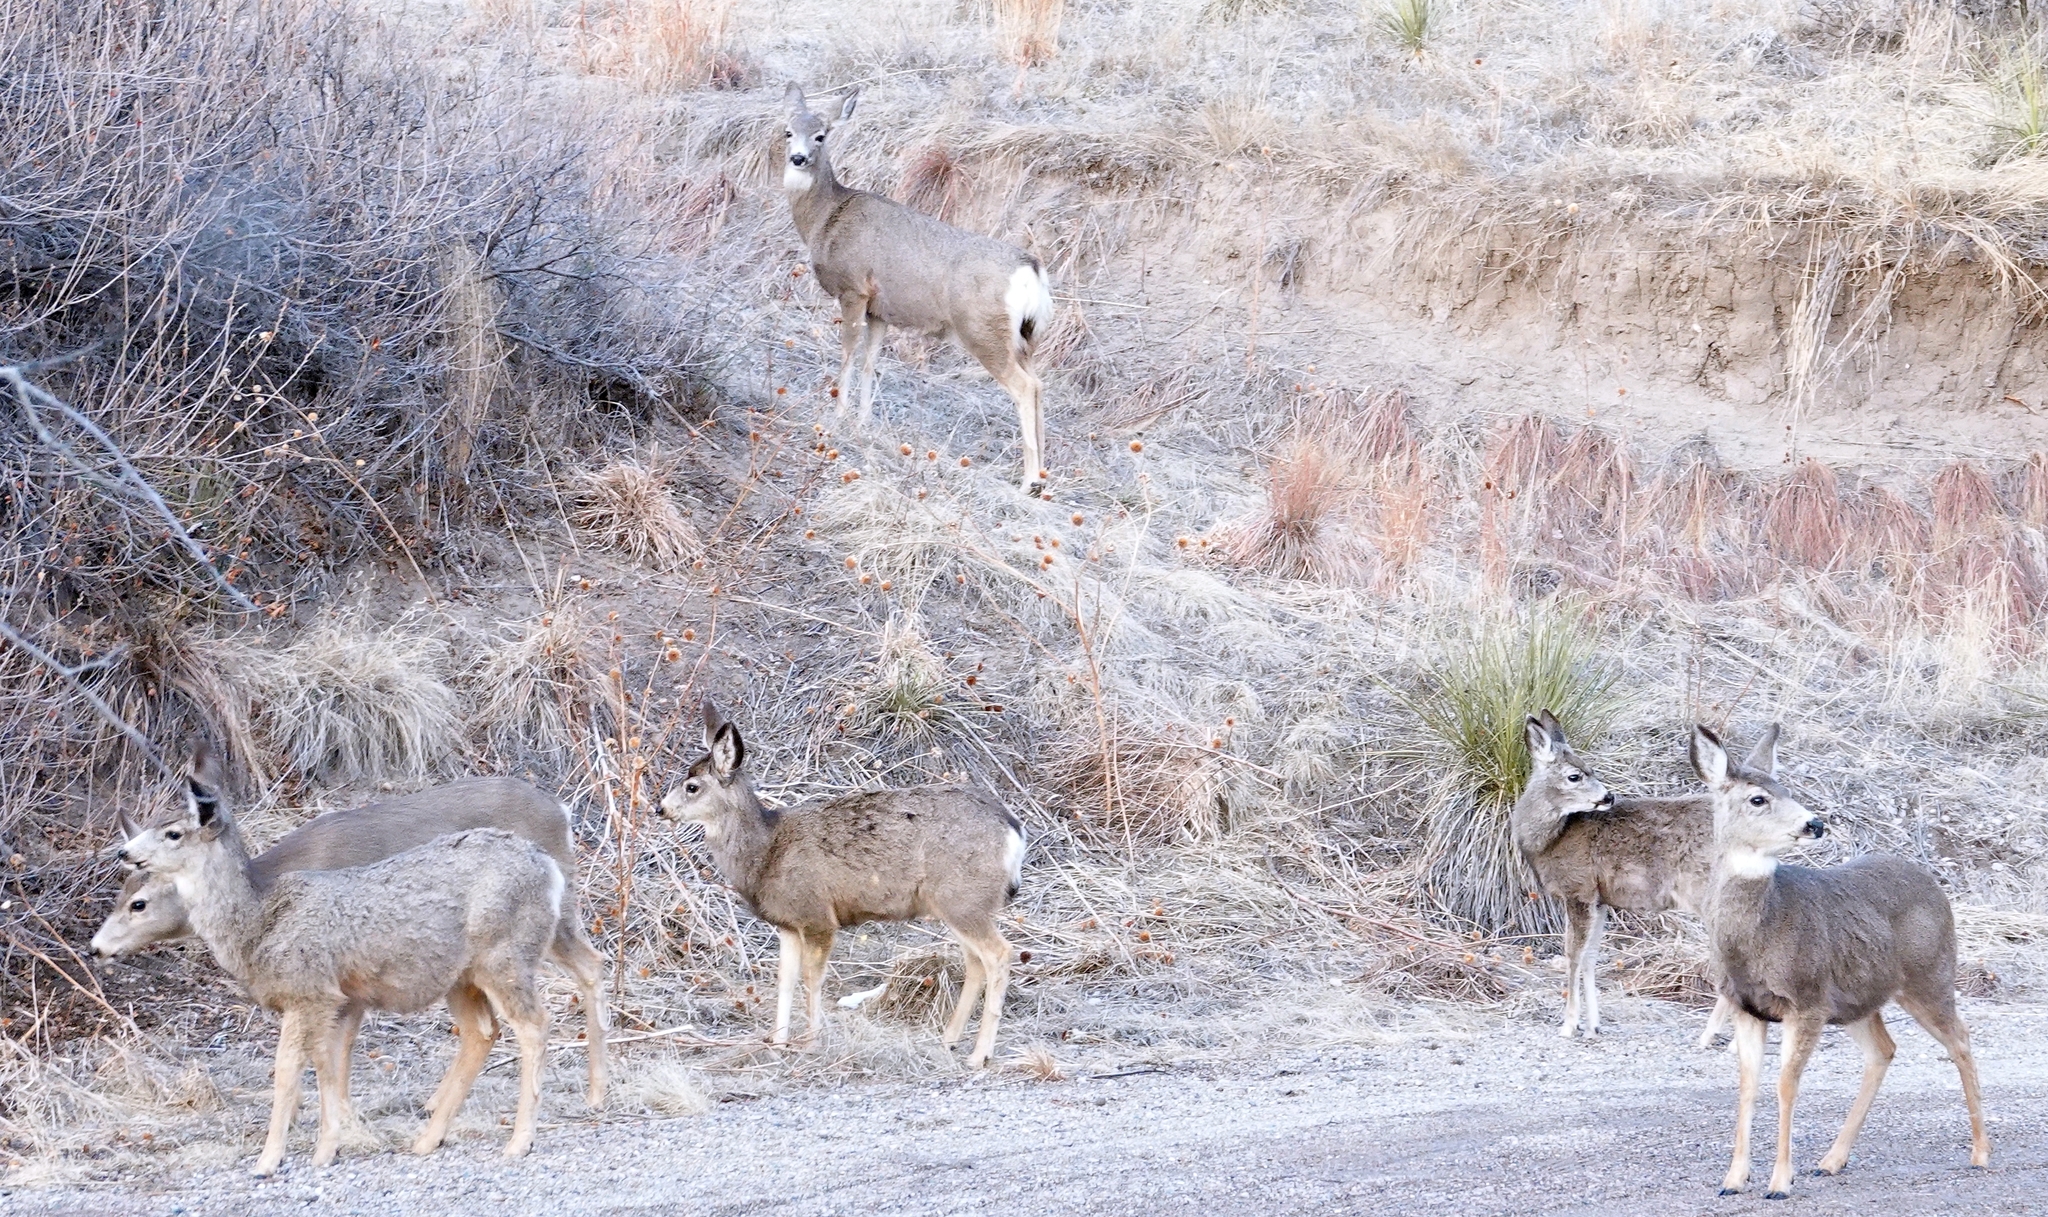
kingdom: Animalia
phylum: Chordata
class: Mammalia
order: Artiodactyla
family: Cervidae
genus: Odocoileus
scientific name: Odocoileus hemionus
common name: Mule deer
